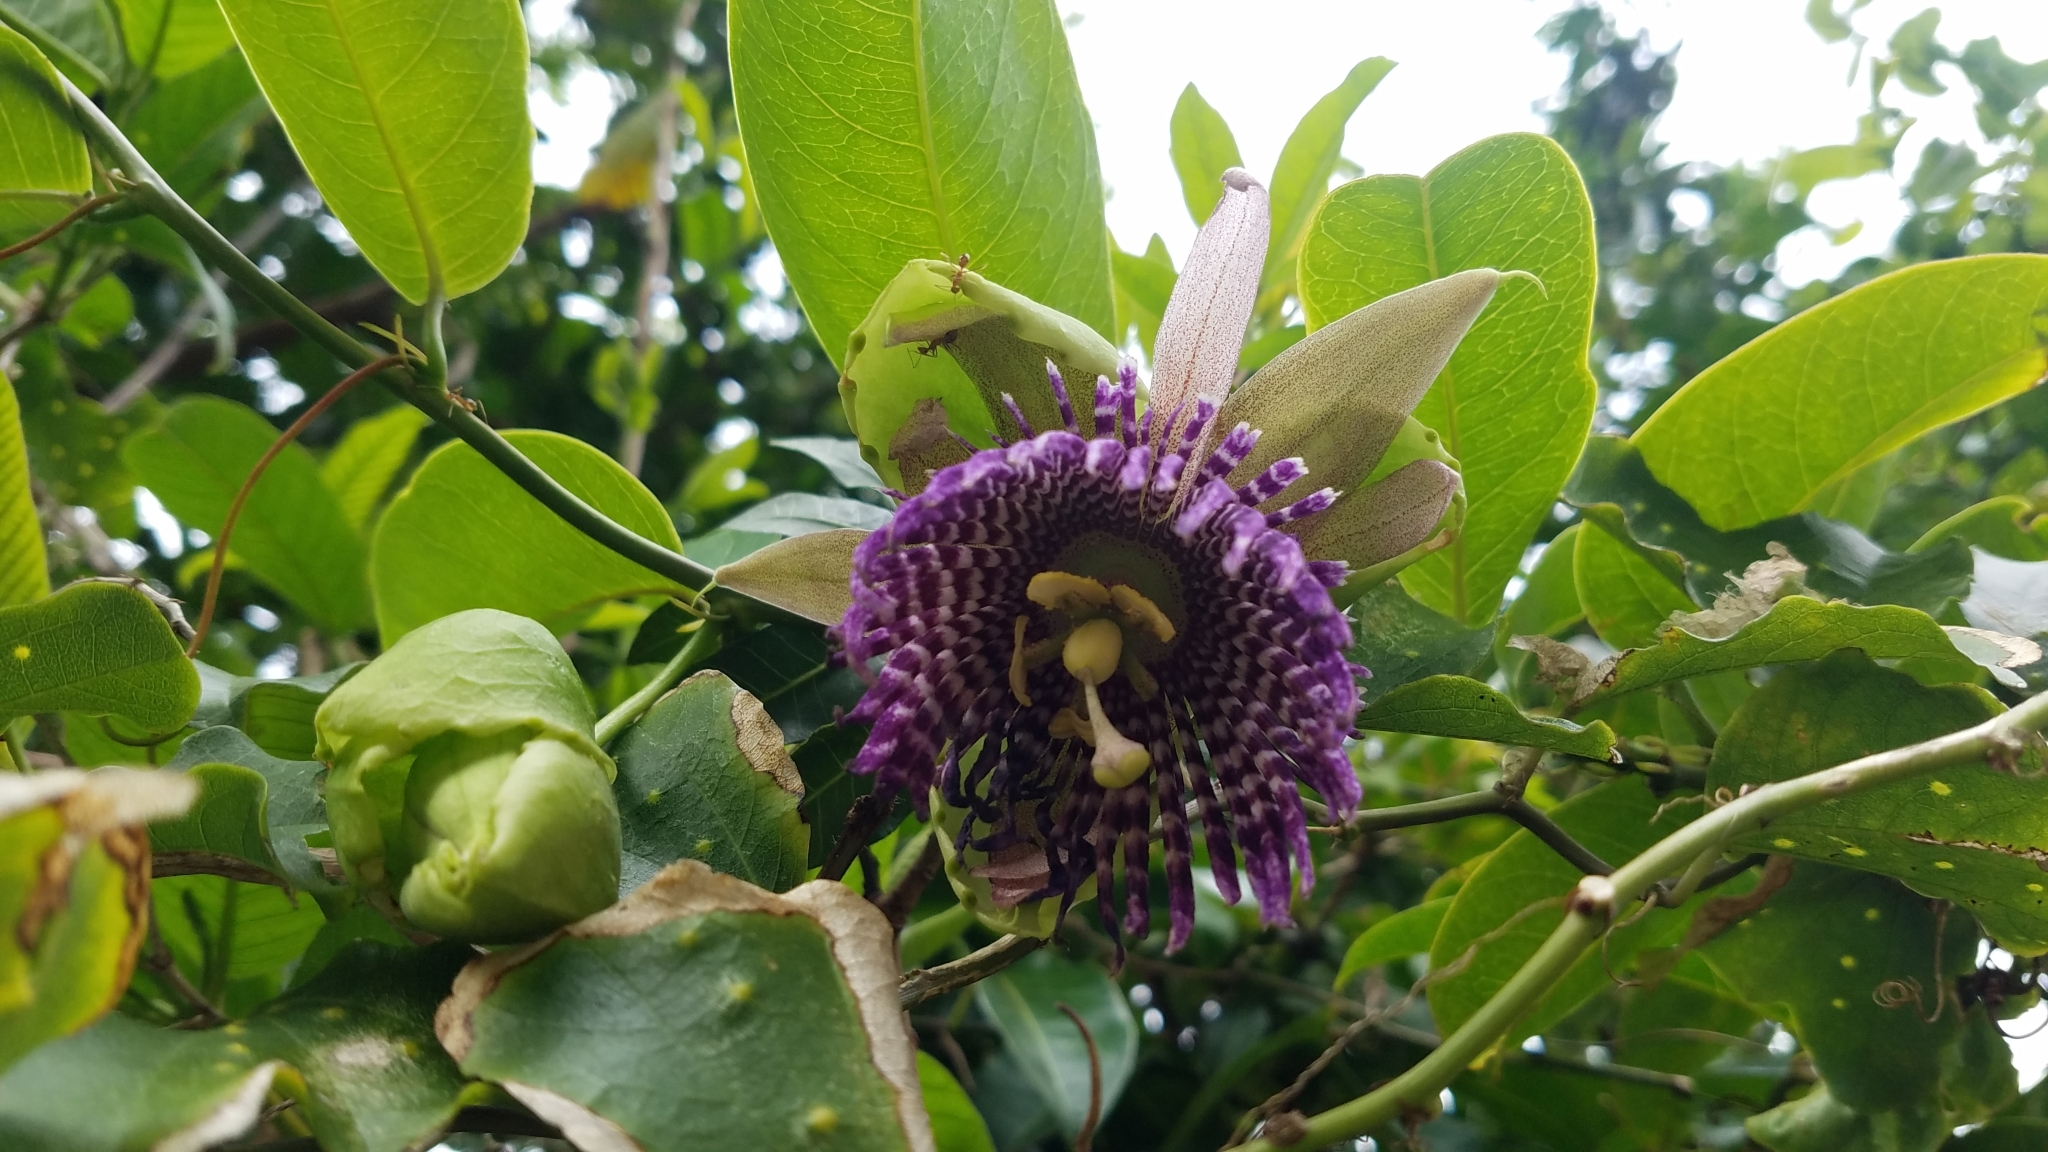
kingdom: Plantae
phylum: Tracheophyta
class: Magnoliopsida
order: Malpighiales
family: Passifloraceae
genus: Passiflora
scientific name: Passiflora laurifolia
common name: Bell apple
